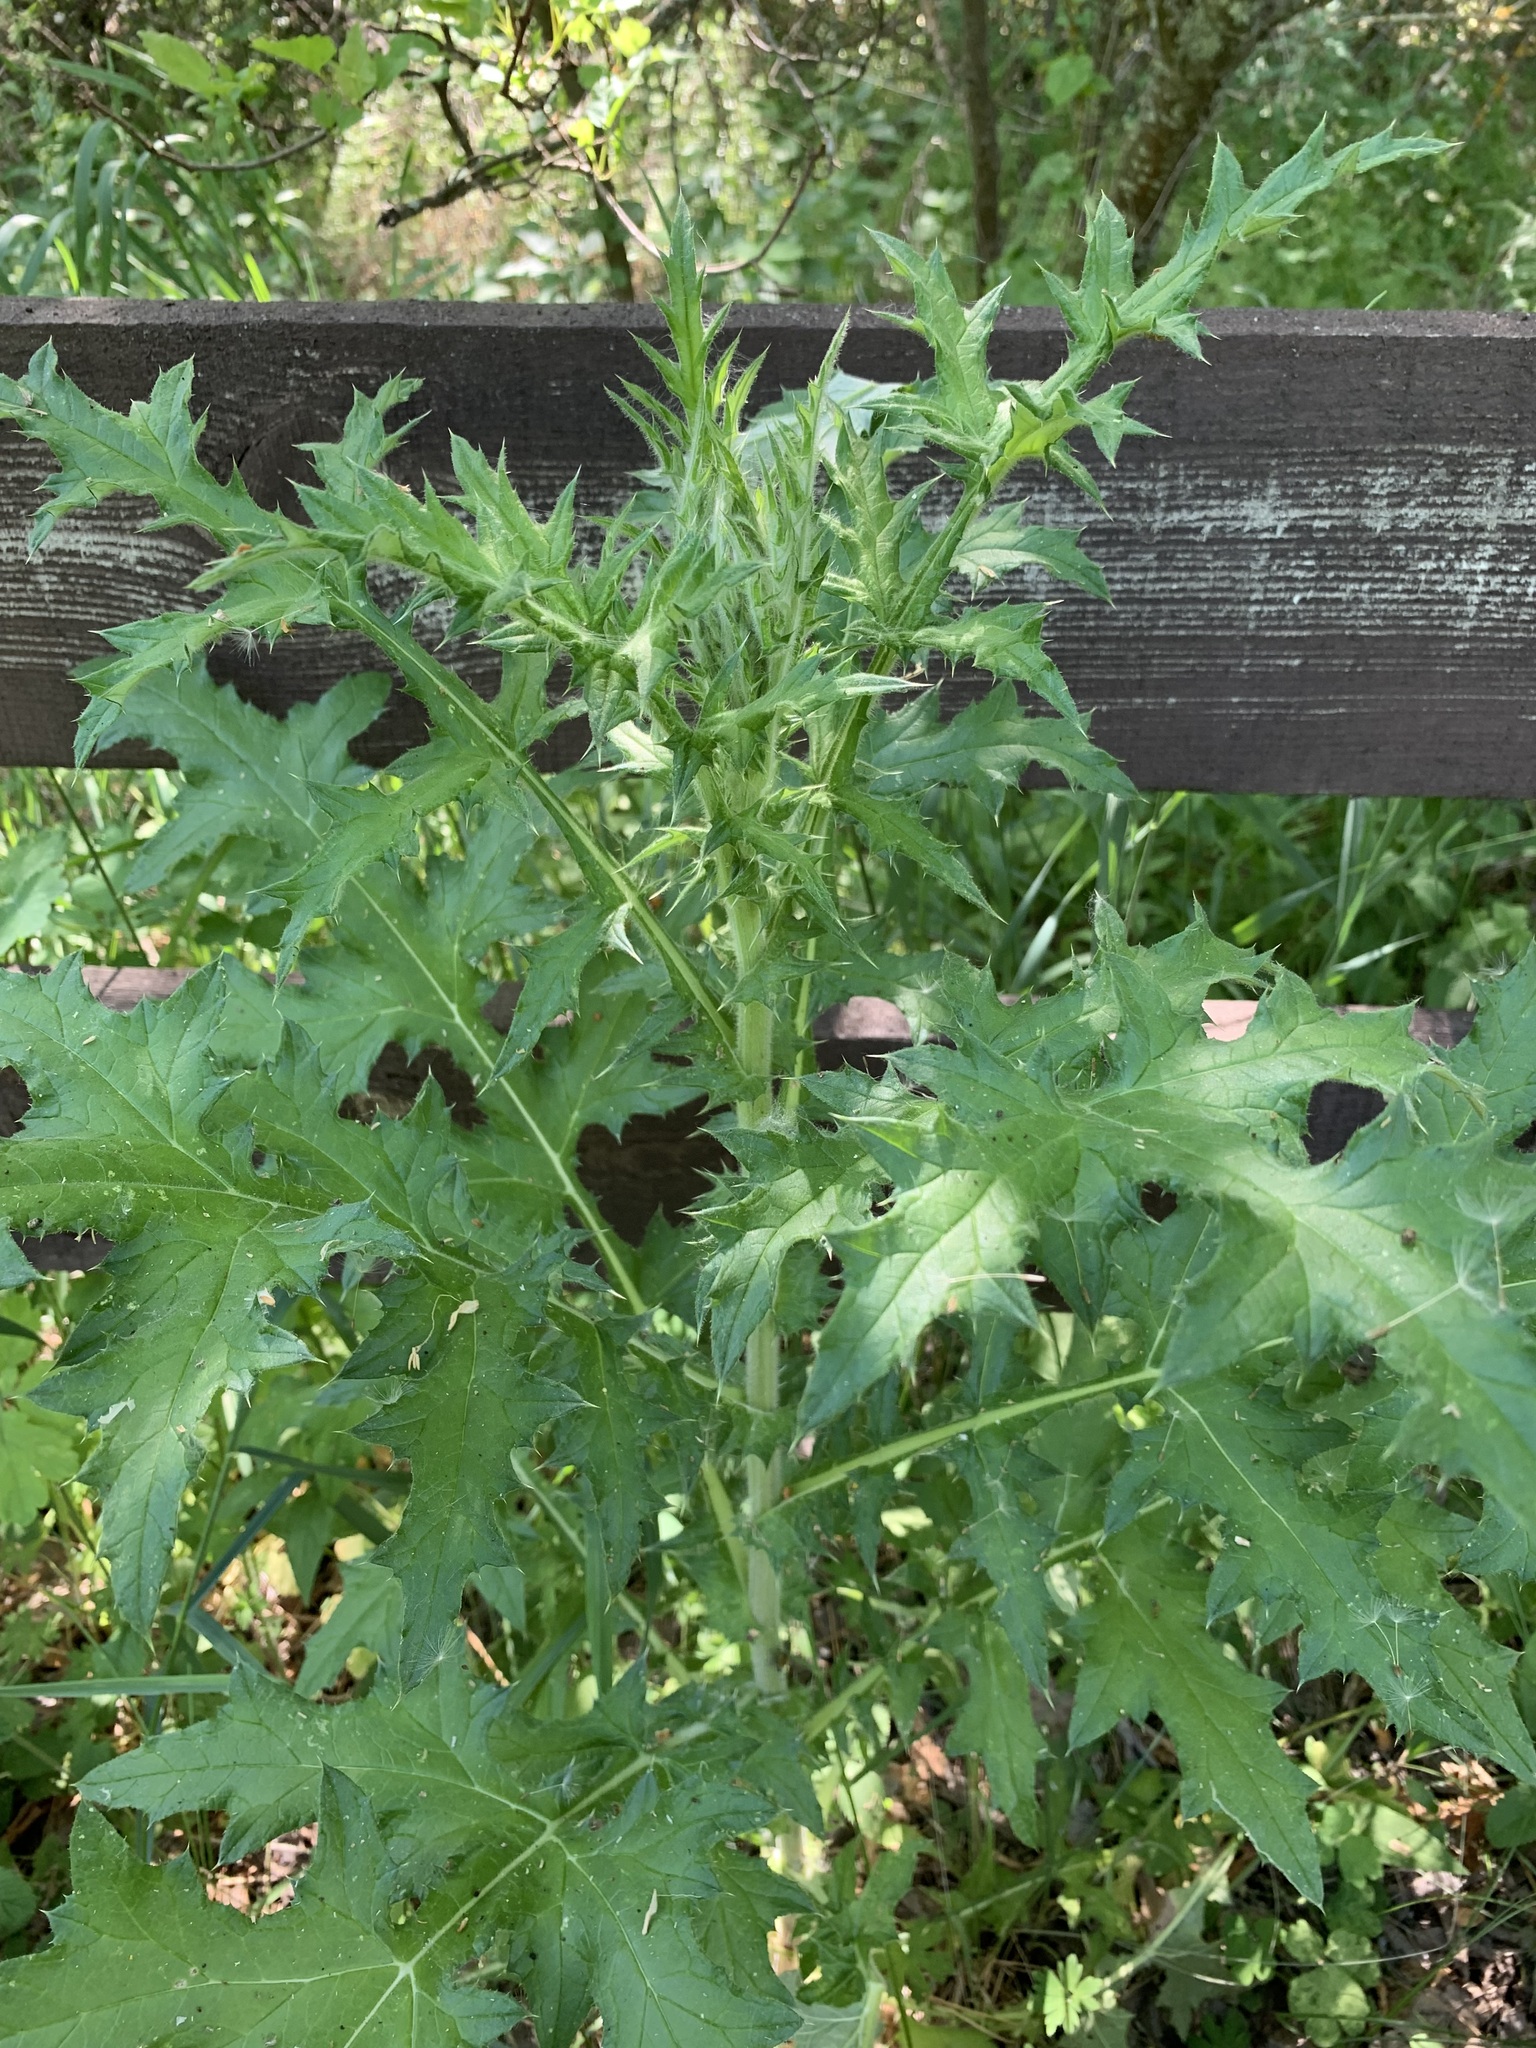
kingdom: Plantae
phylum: Tracheophyta
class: Magnoliopsida
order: Asterales
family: Asteraceae
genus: Echinops
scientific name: Echinops sphaerocephalus
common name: Glandular globe-thistle
